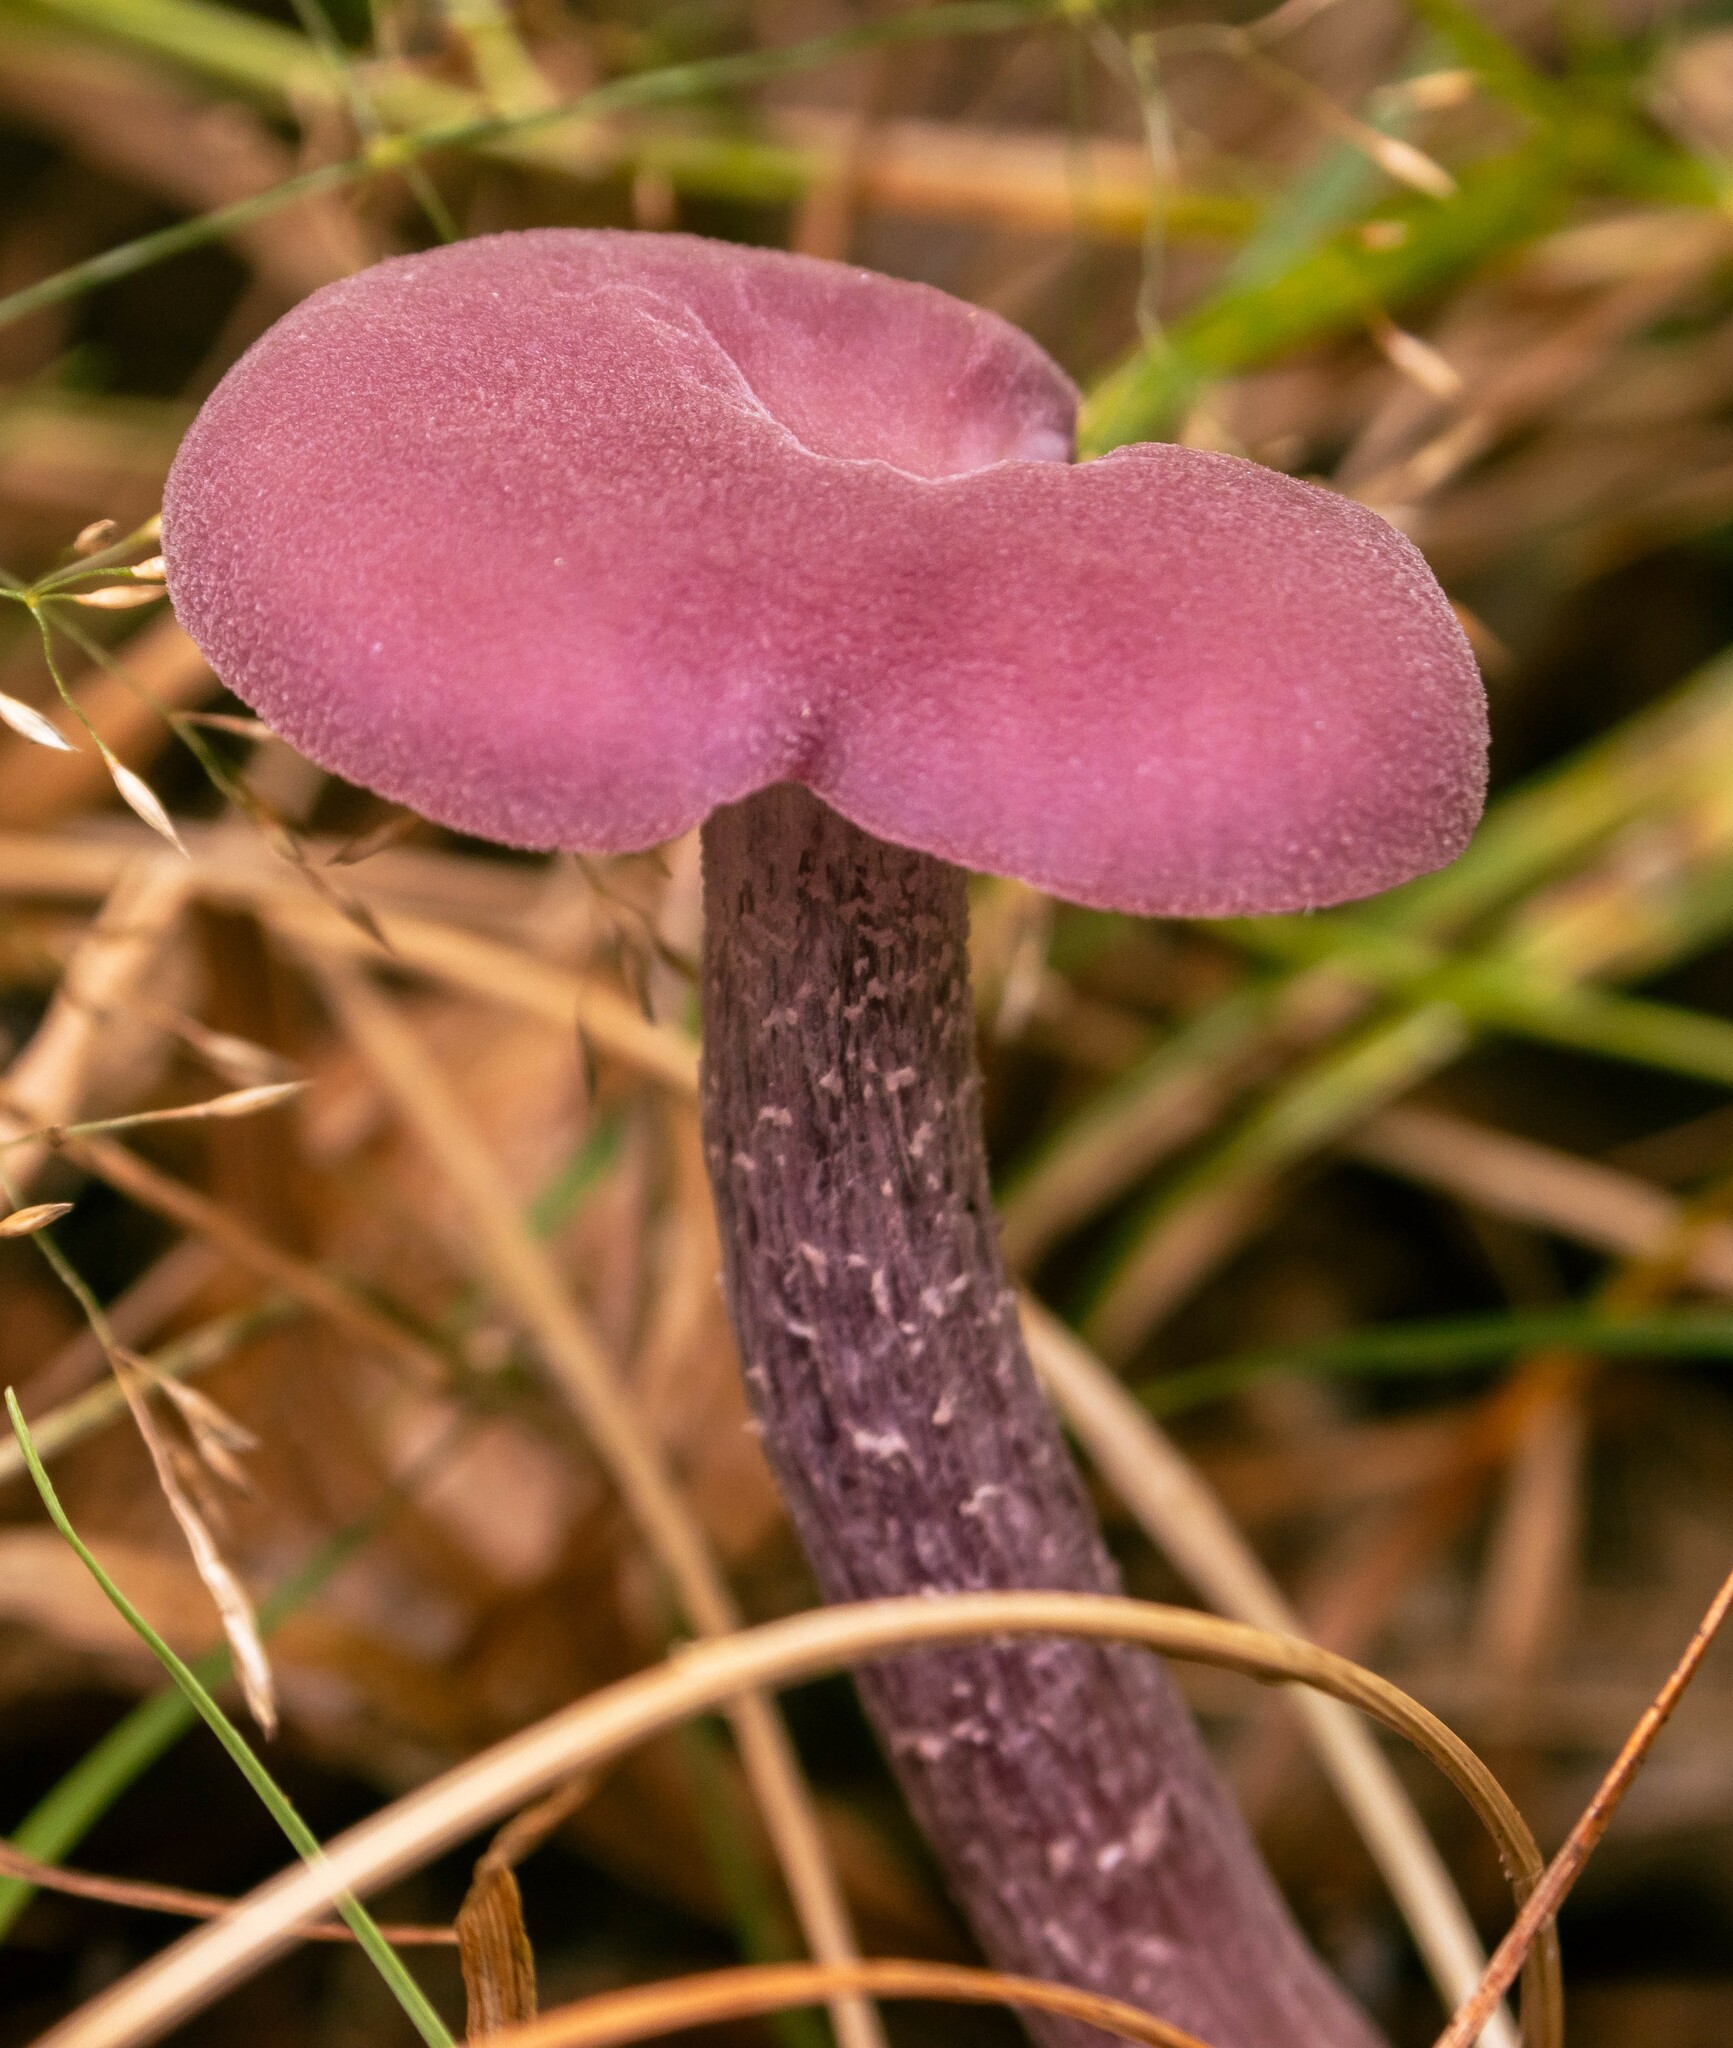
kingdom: Fungi
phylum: Basidiomycota
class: Agaricomycetes
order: Agaricales
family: Hydnangiaceae
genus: Laccaria
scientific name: Laccaria amethystina
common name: Amethyst deceiver
